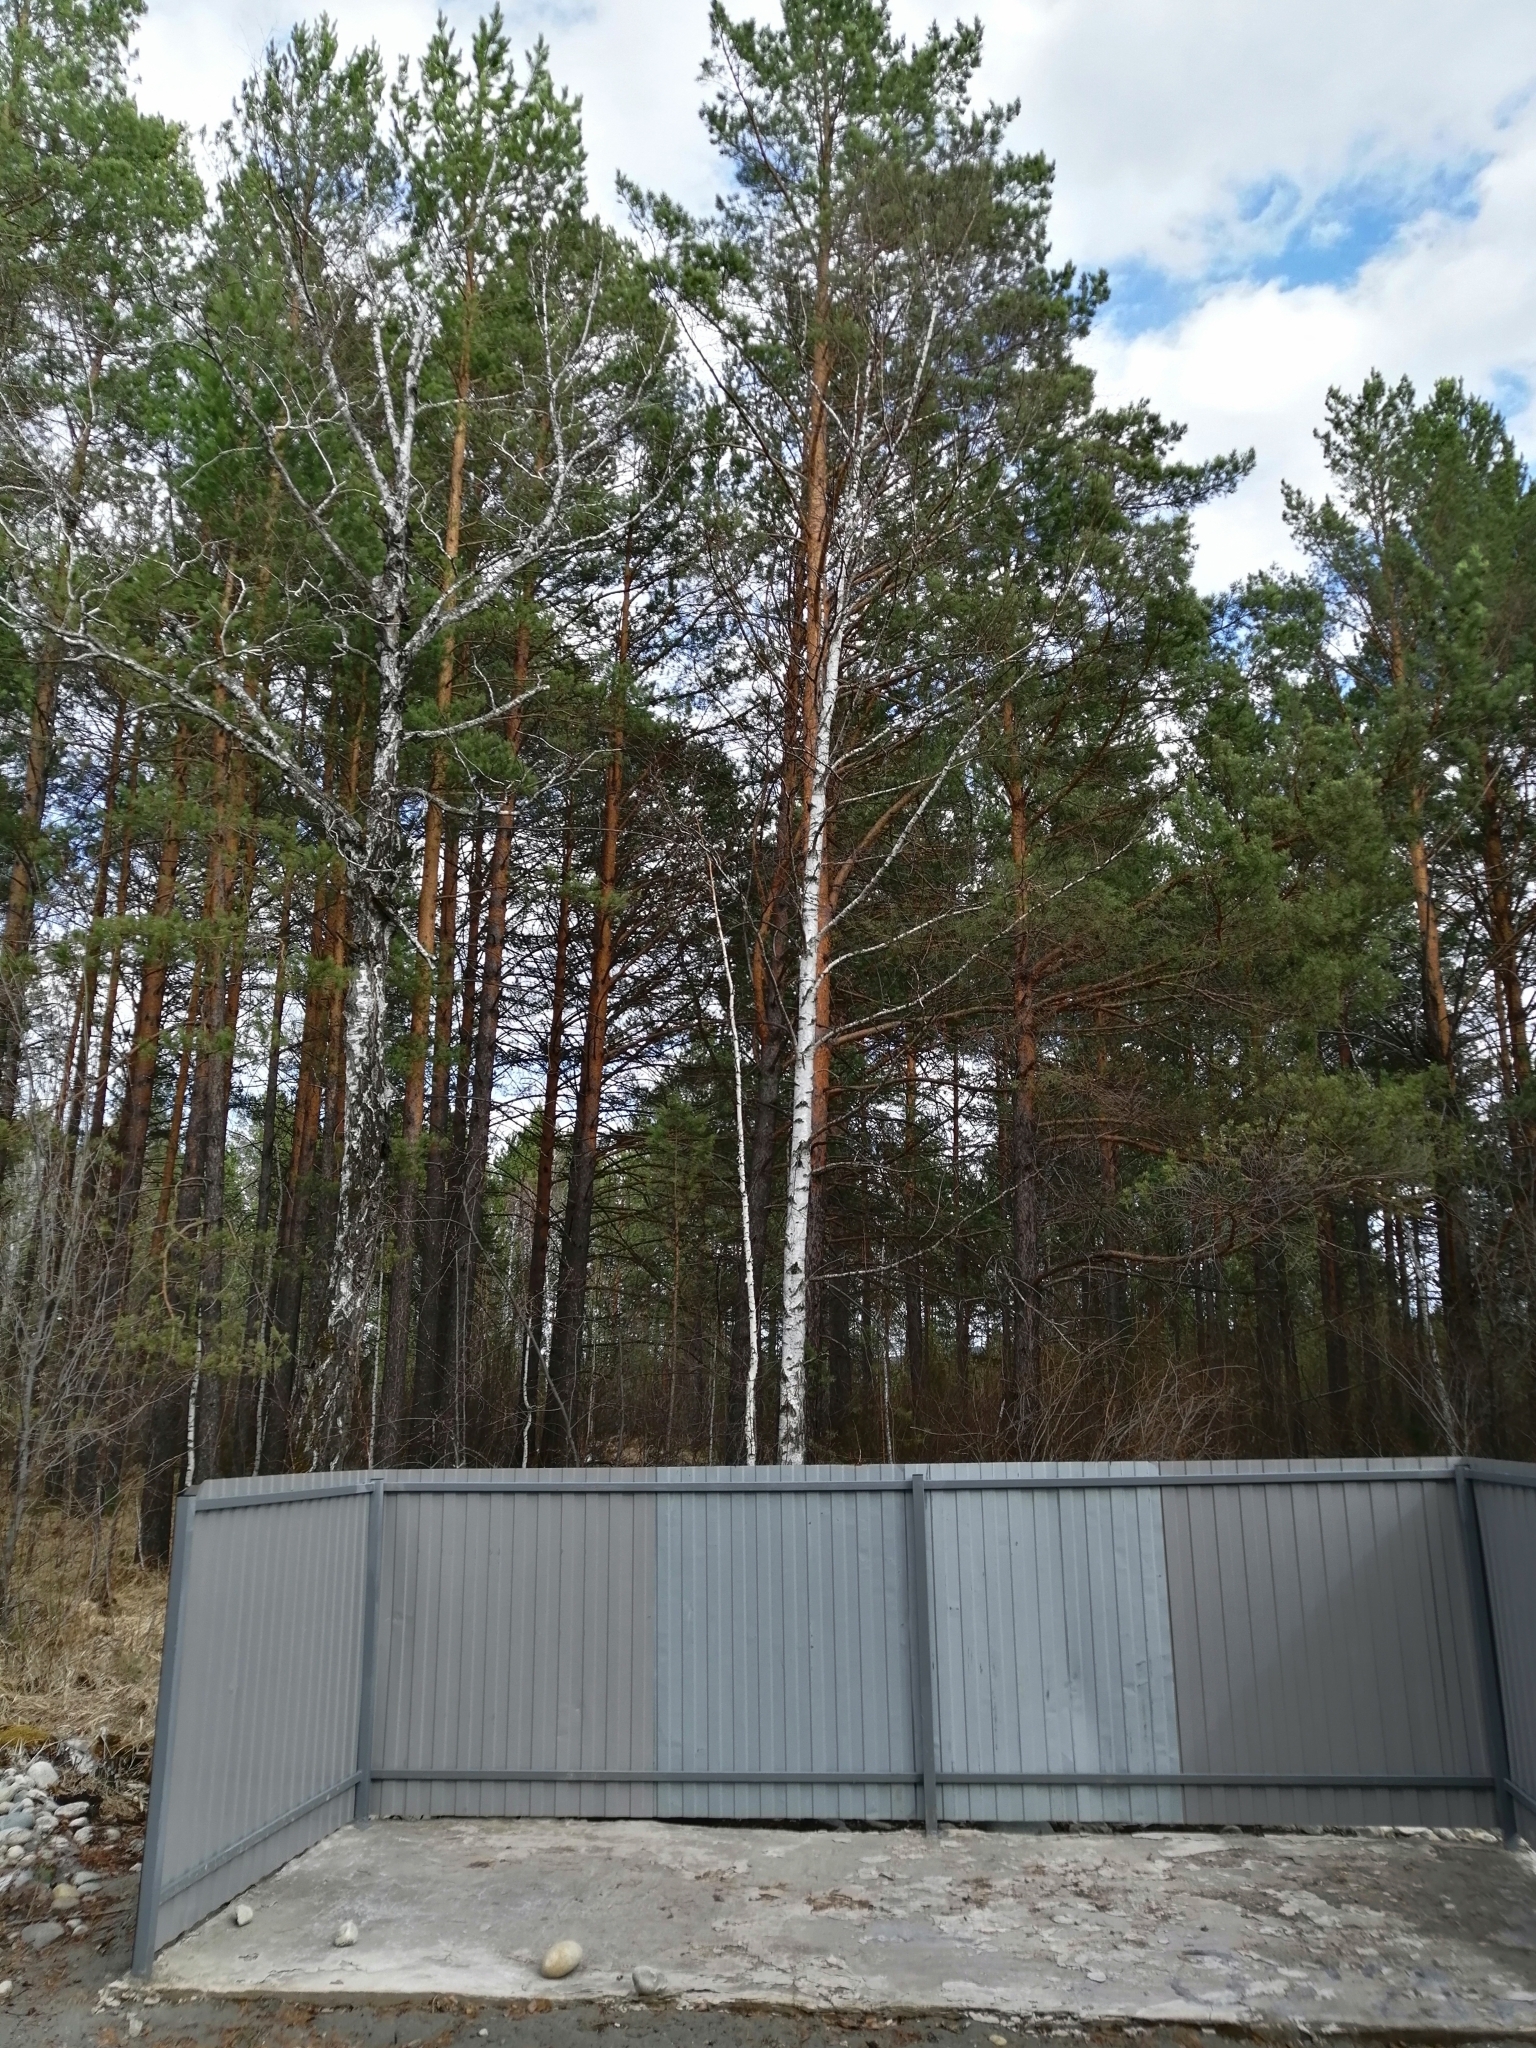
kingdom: Plantae
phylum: Tracheophyta
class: Pinopsida
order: Pinales
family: Pinaceae
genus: Pinus
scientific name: Pinus sylvestris
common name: Scots pine
